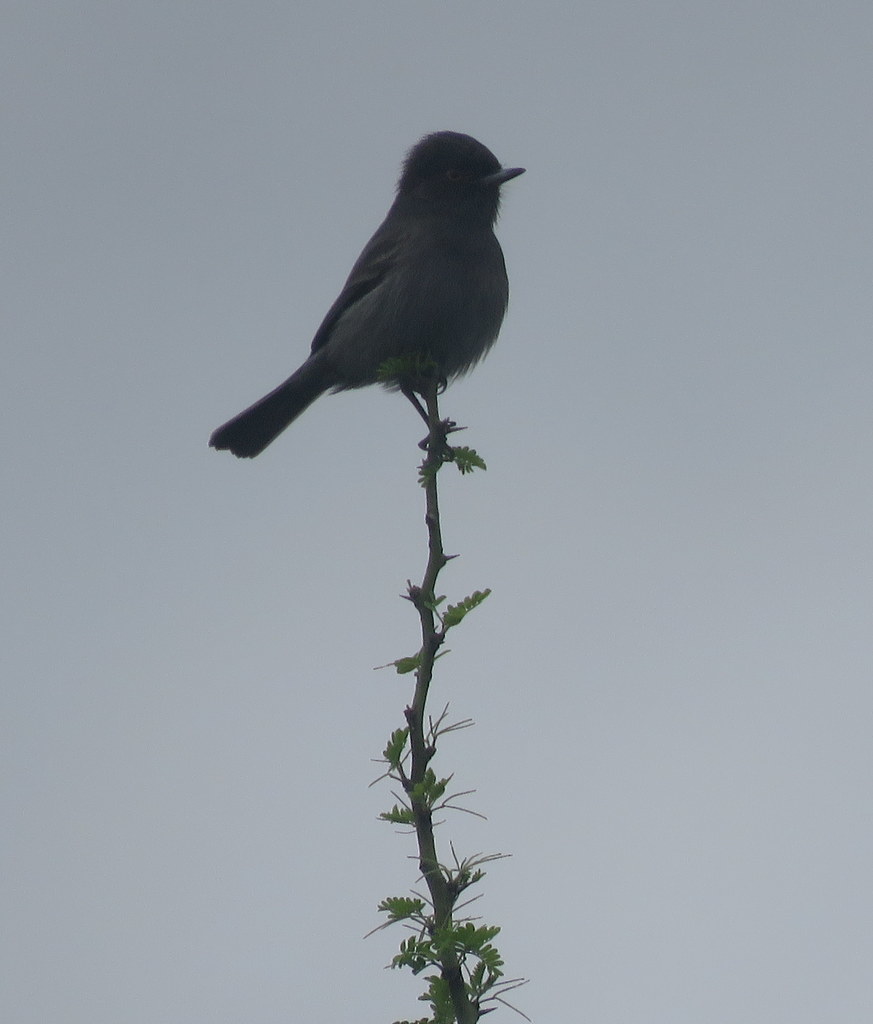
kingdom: Animalia
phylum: Chordata
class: Aves
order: Passeriformes
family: Tyrannidae
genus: Knipolegus
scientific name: Knipolegus striaticeps
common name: Cinereous tyrant
